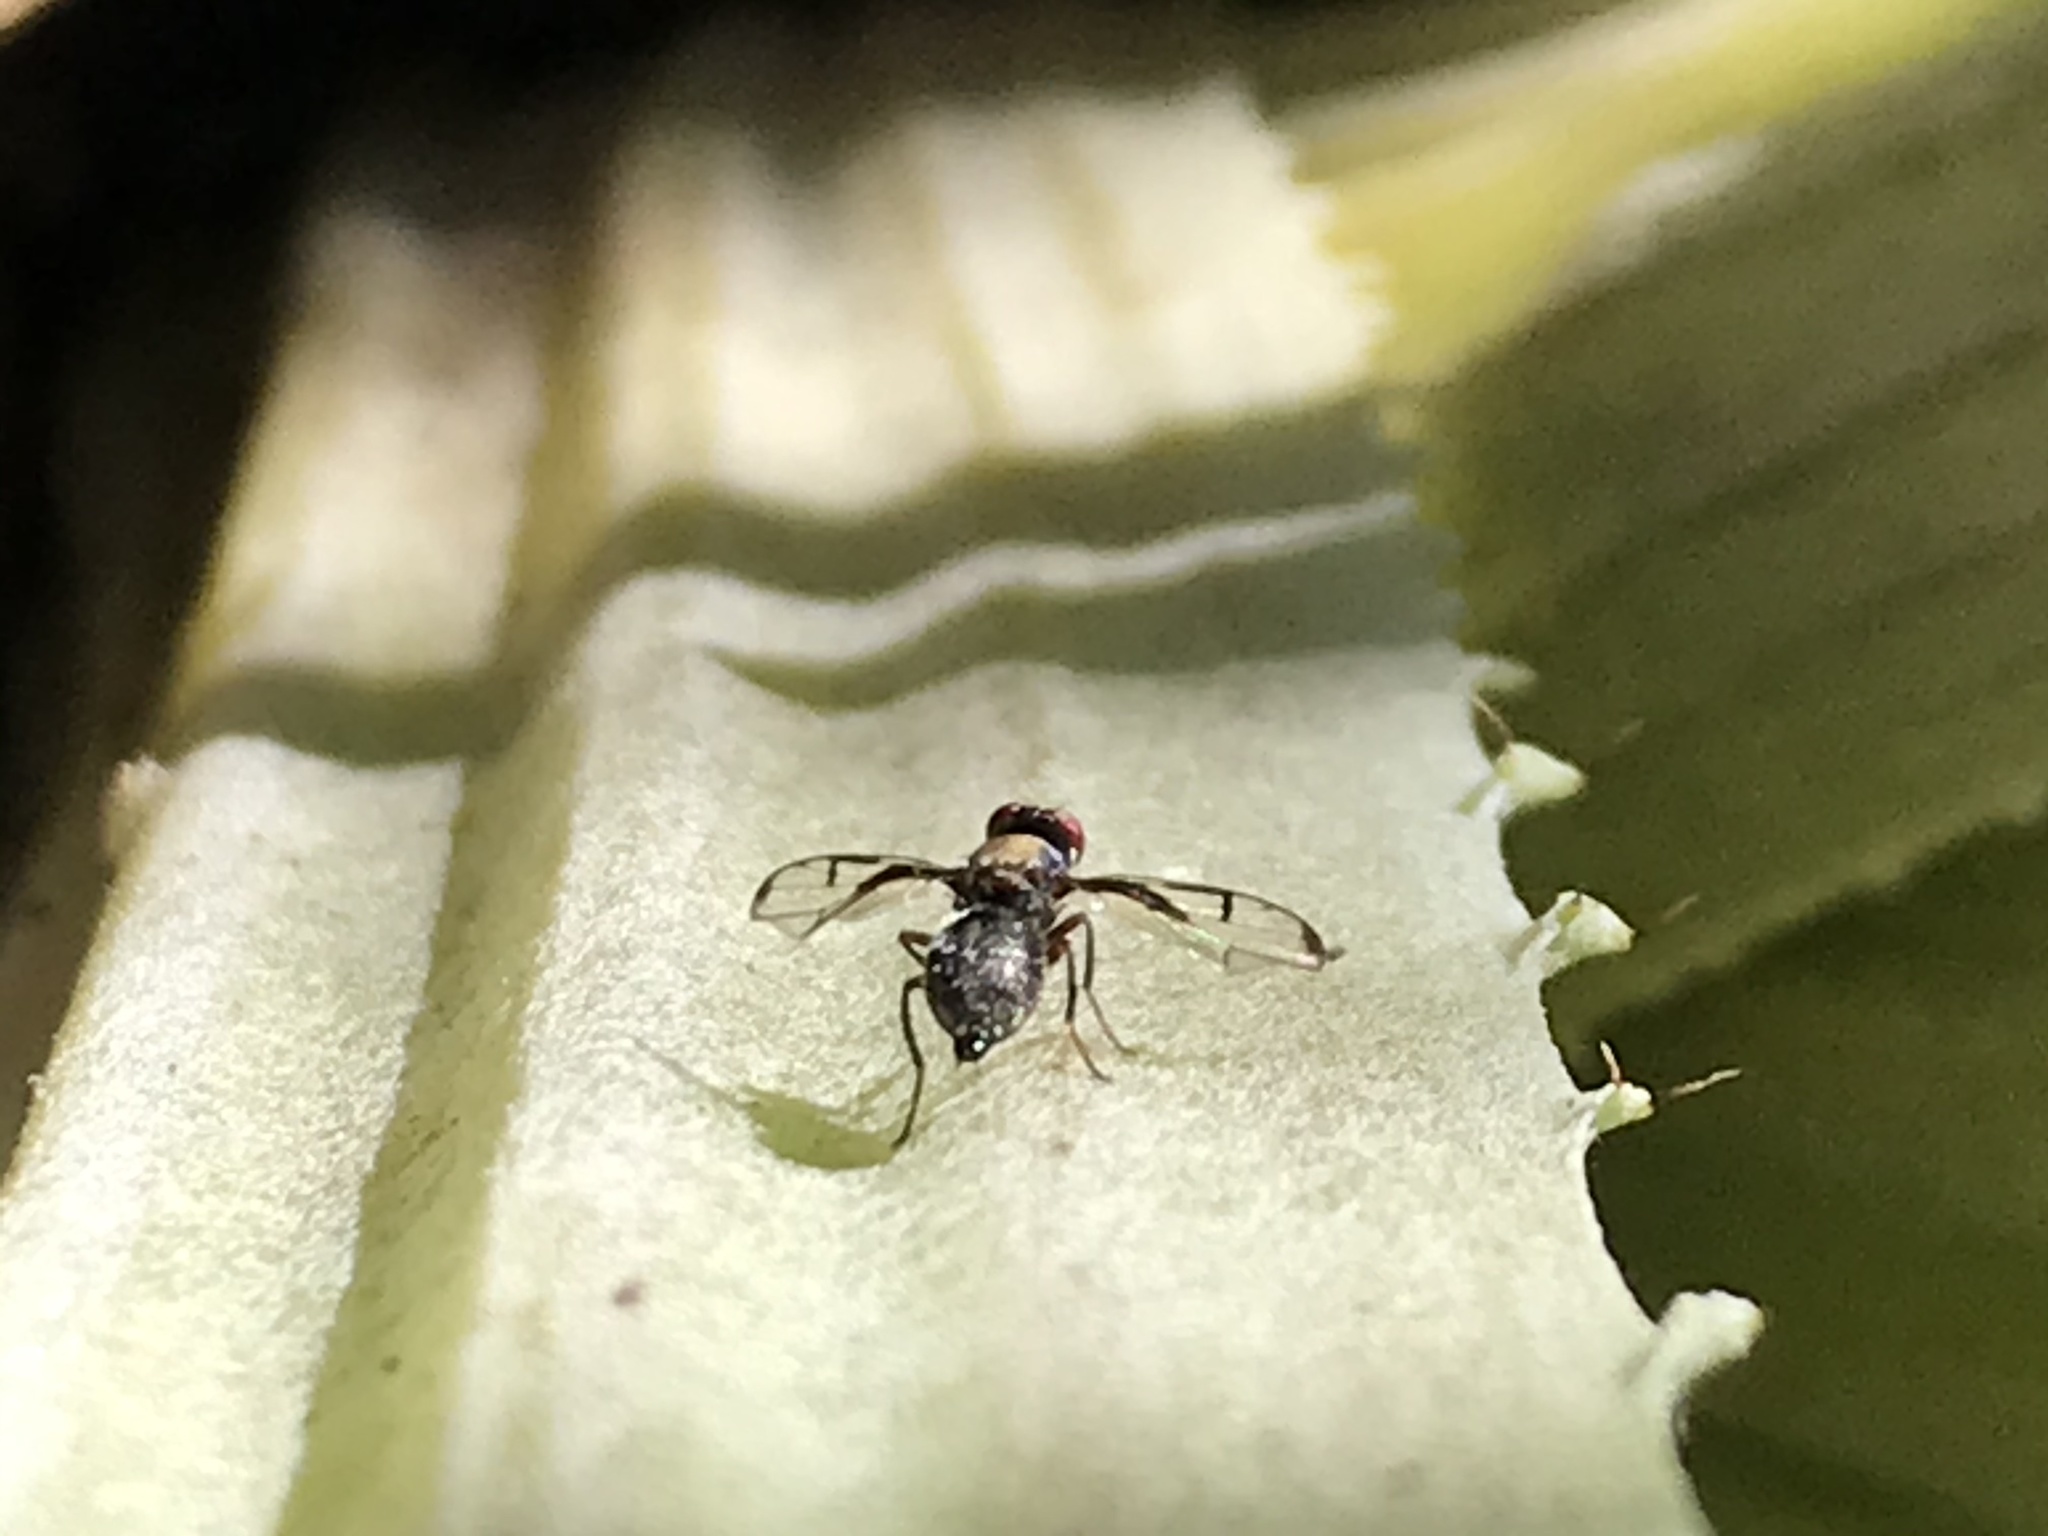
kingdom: Animalia
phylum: Arthropoda
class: Insecta
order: Diptera
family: Platystomatidae
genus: Pogonortalis
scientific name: Pogonortalis doclea
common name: Boatman fly
